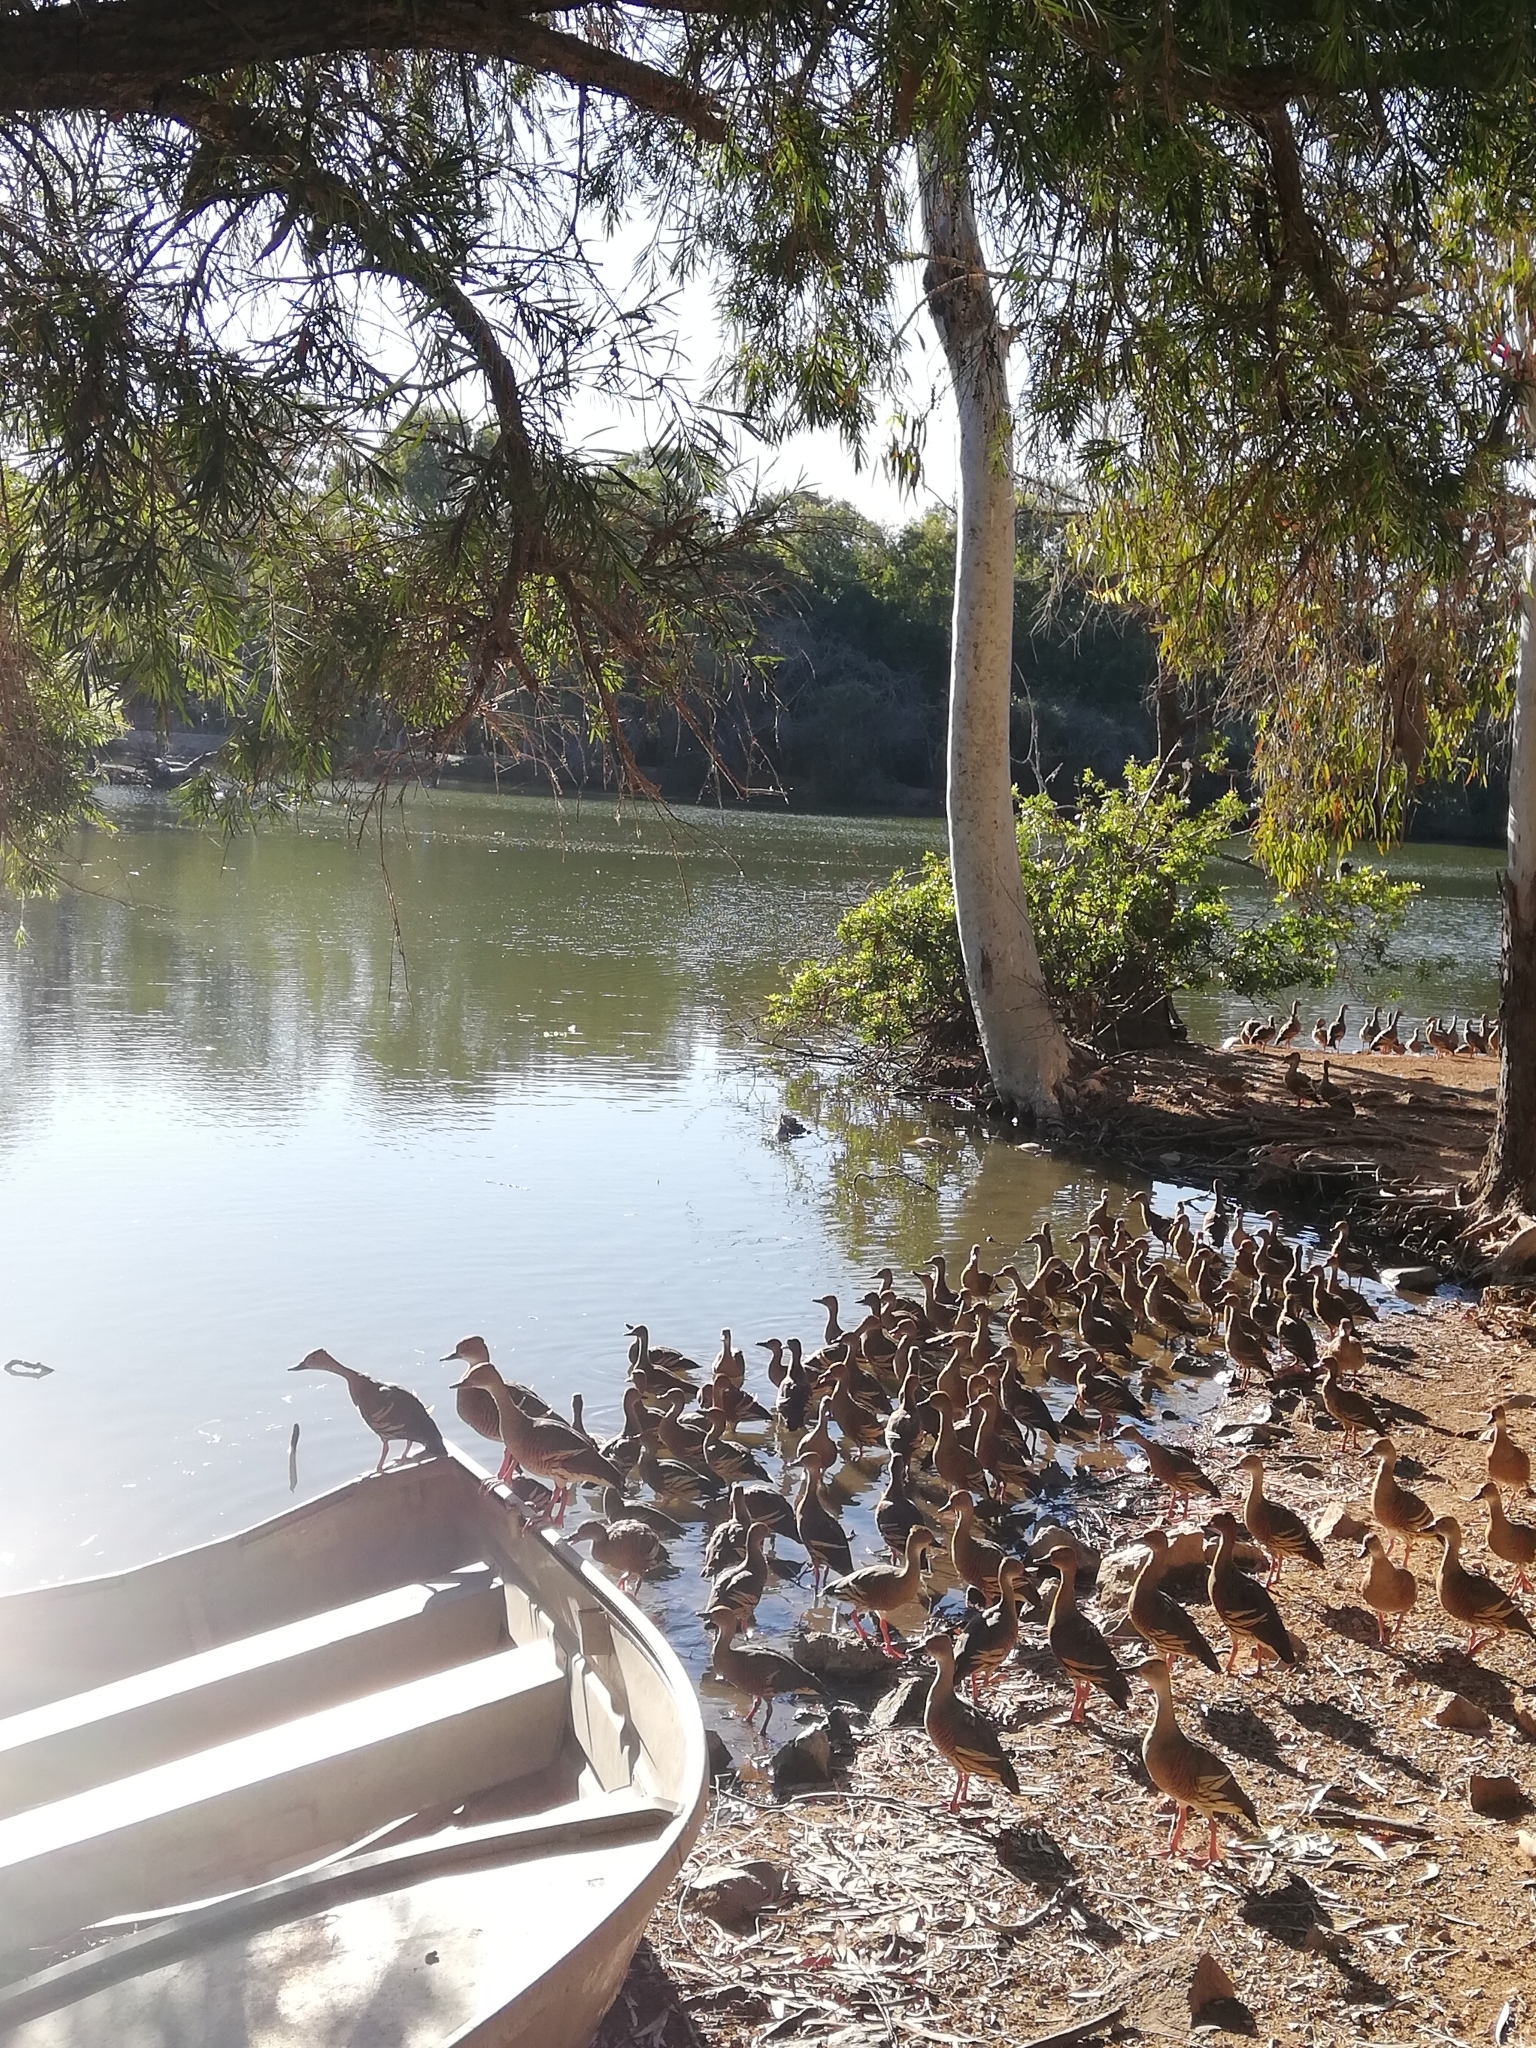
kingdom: Animalia
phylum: Chordata
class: Aves
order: Anseriformes
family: Anatidae
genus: Dendrocygna
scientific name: Dendrocygna eytoni
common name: Plumed whistling-duck
